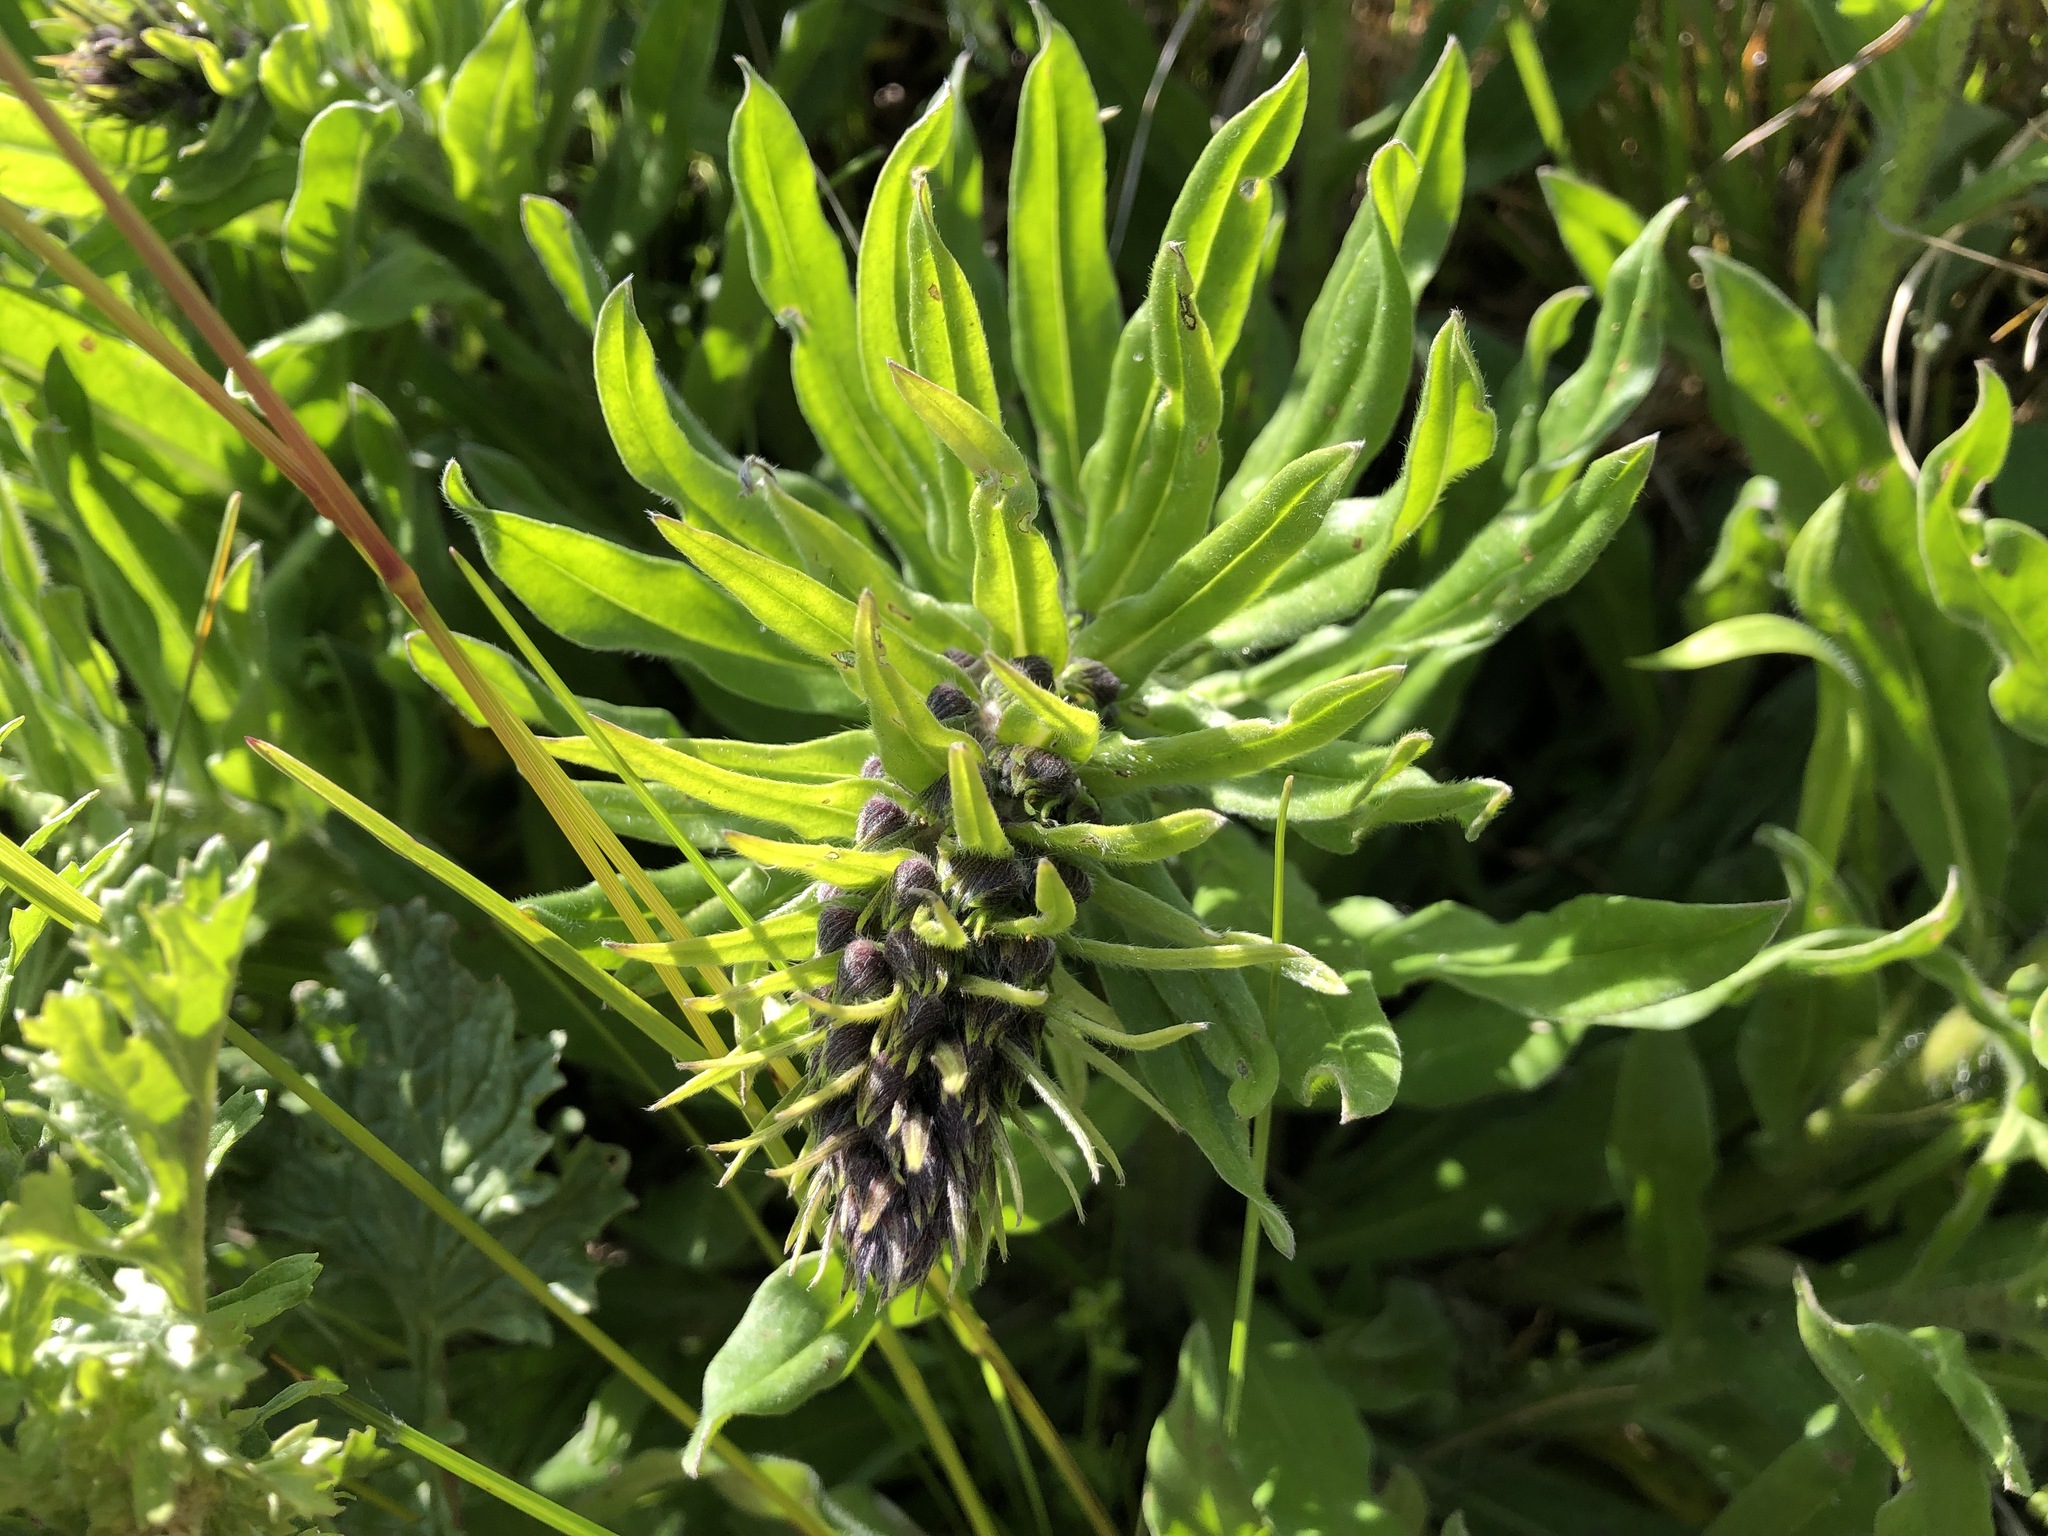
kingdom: Plantae
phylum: Tracheophyta
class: Magnoliopsida
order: Boraginales
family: Boraginaceae
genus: Echium
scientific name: Echium vulgare
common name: Common viper's bugloss
